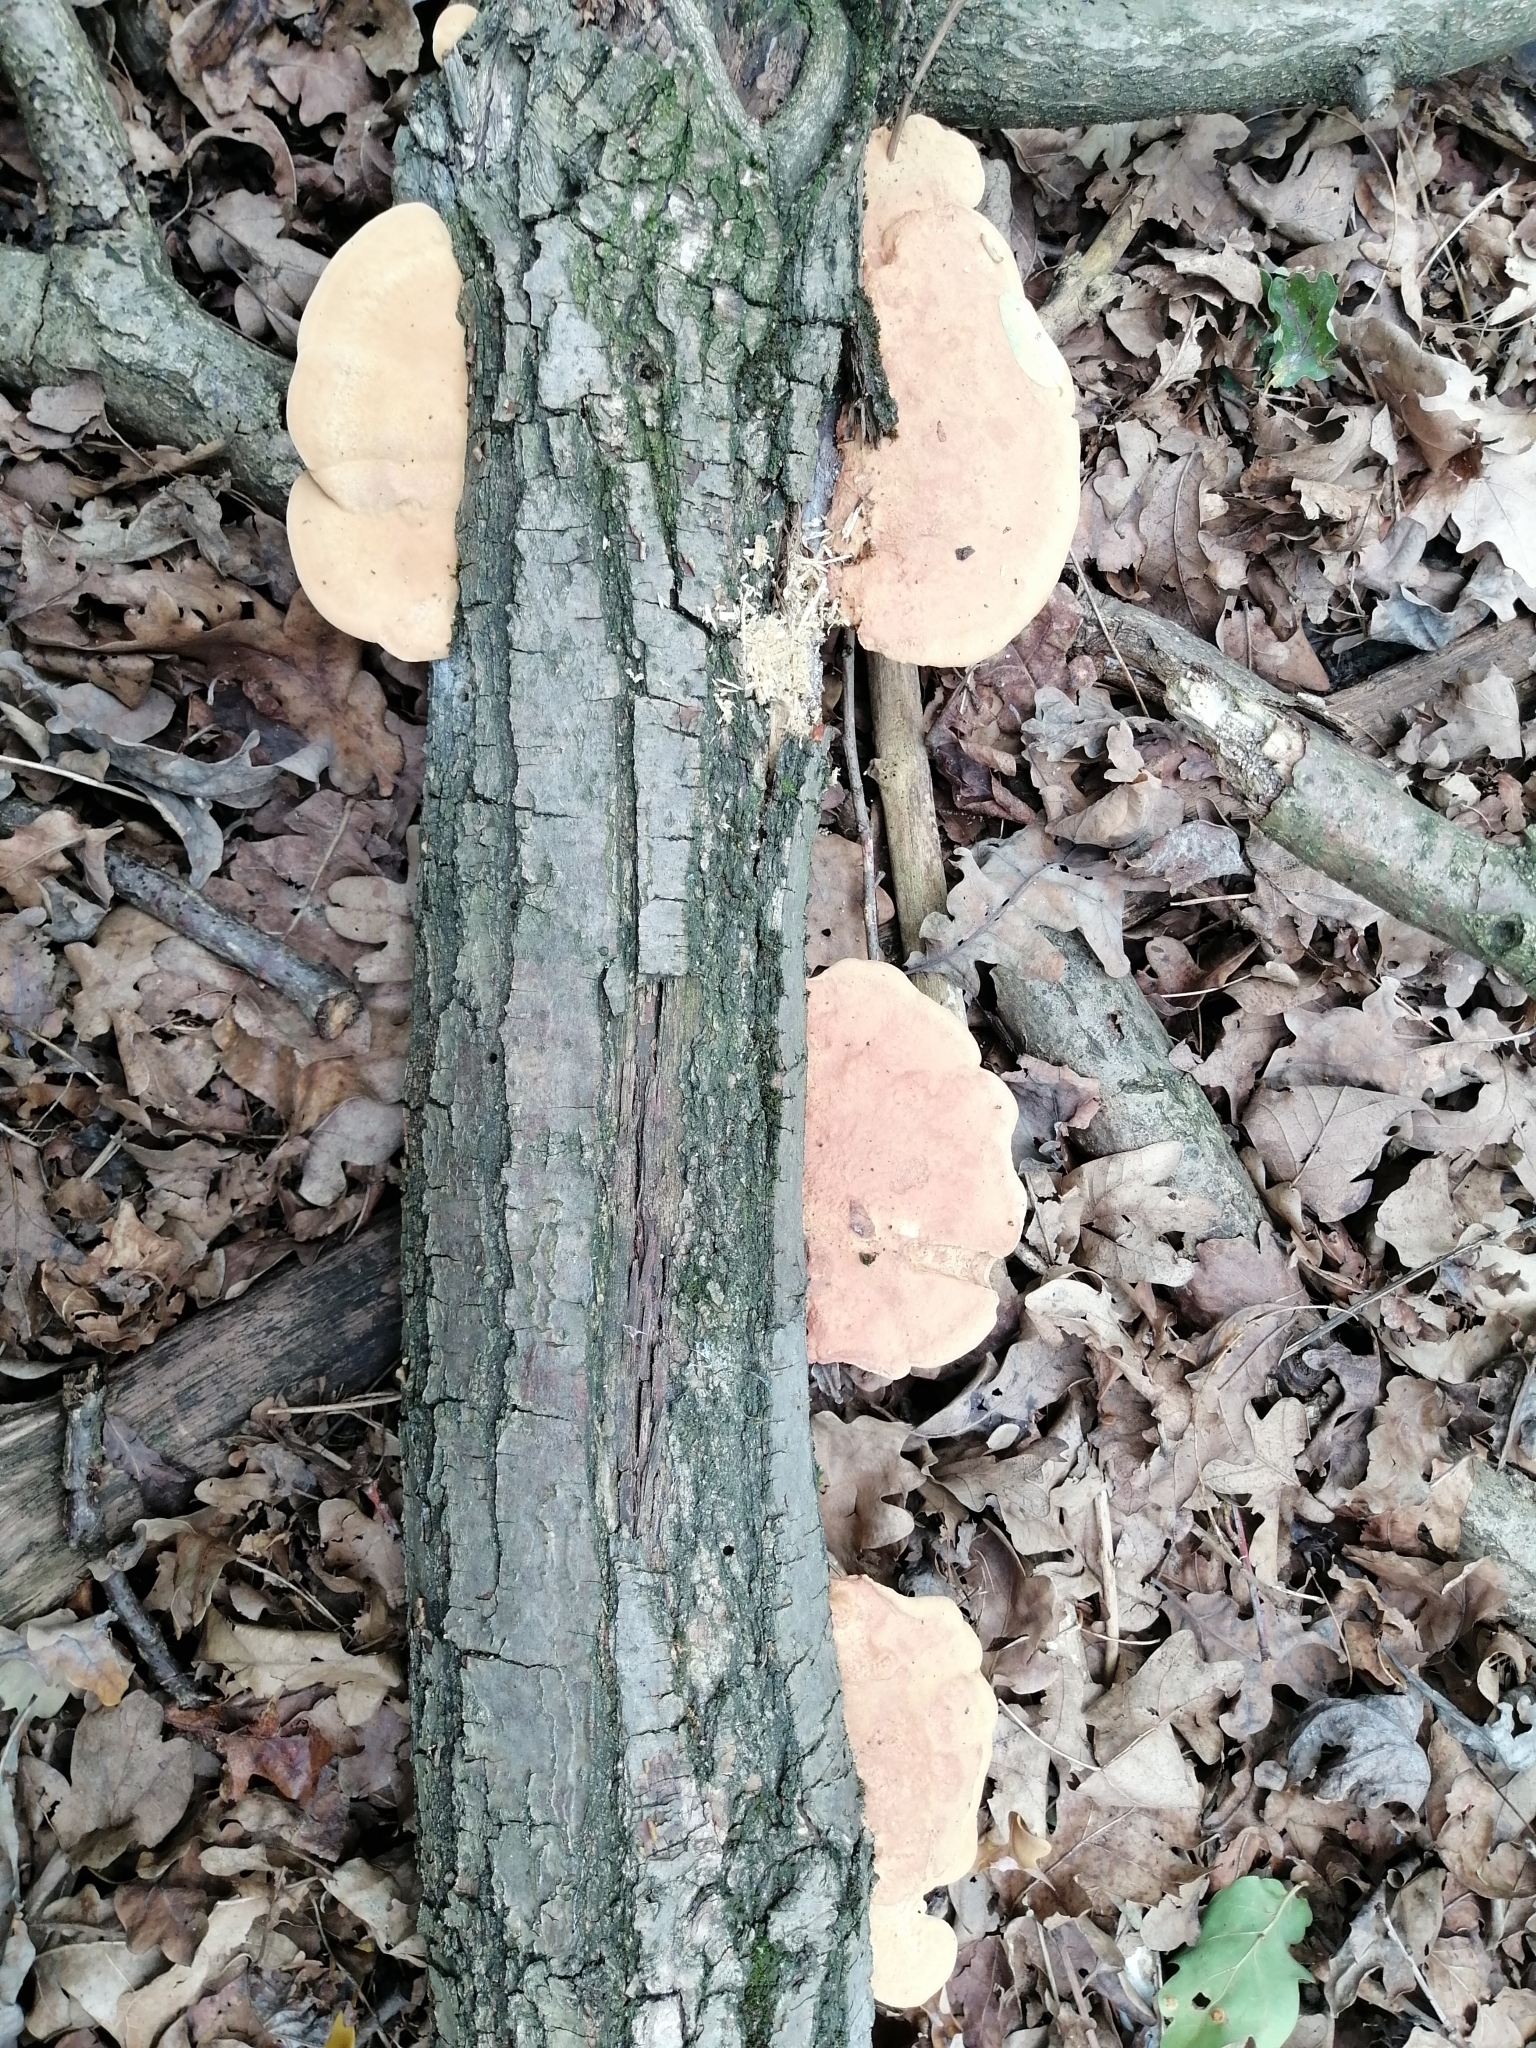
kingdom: Fungi
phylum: Basidiomycota
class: Agaricomycetes
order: Polyporales
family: Phanerochaetaceae
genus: Hapalopilus
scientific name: Hapalopilus rutilans
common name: Tender nesting polypore
